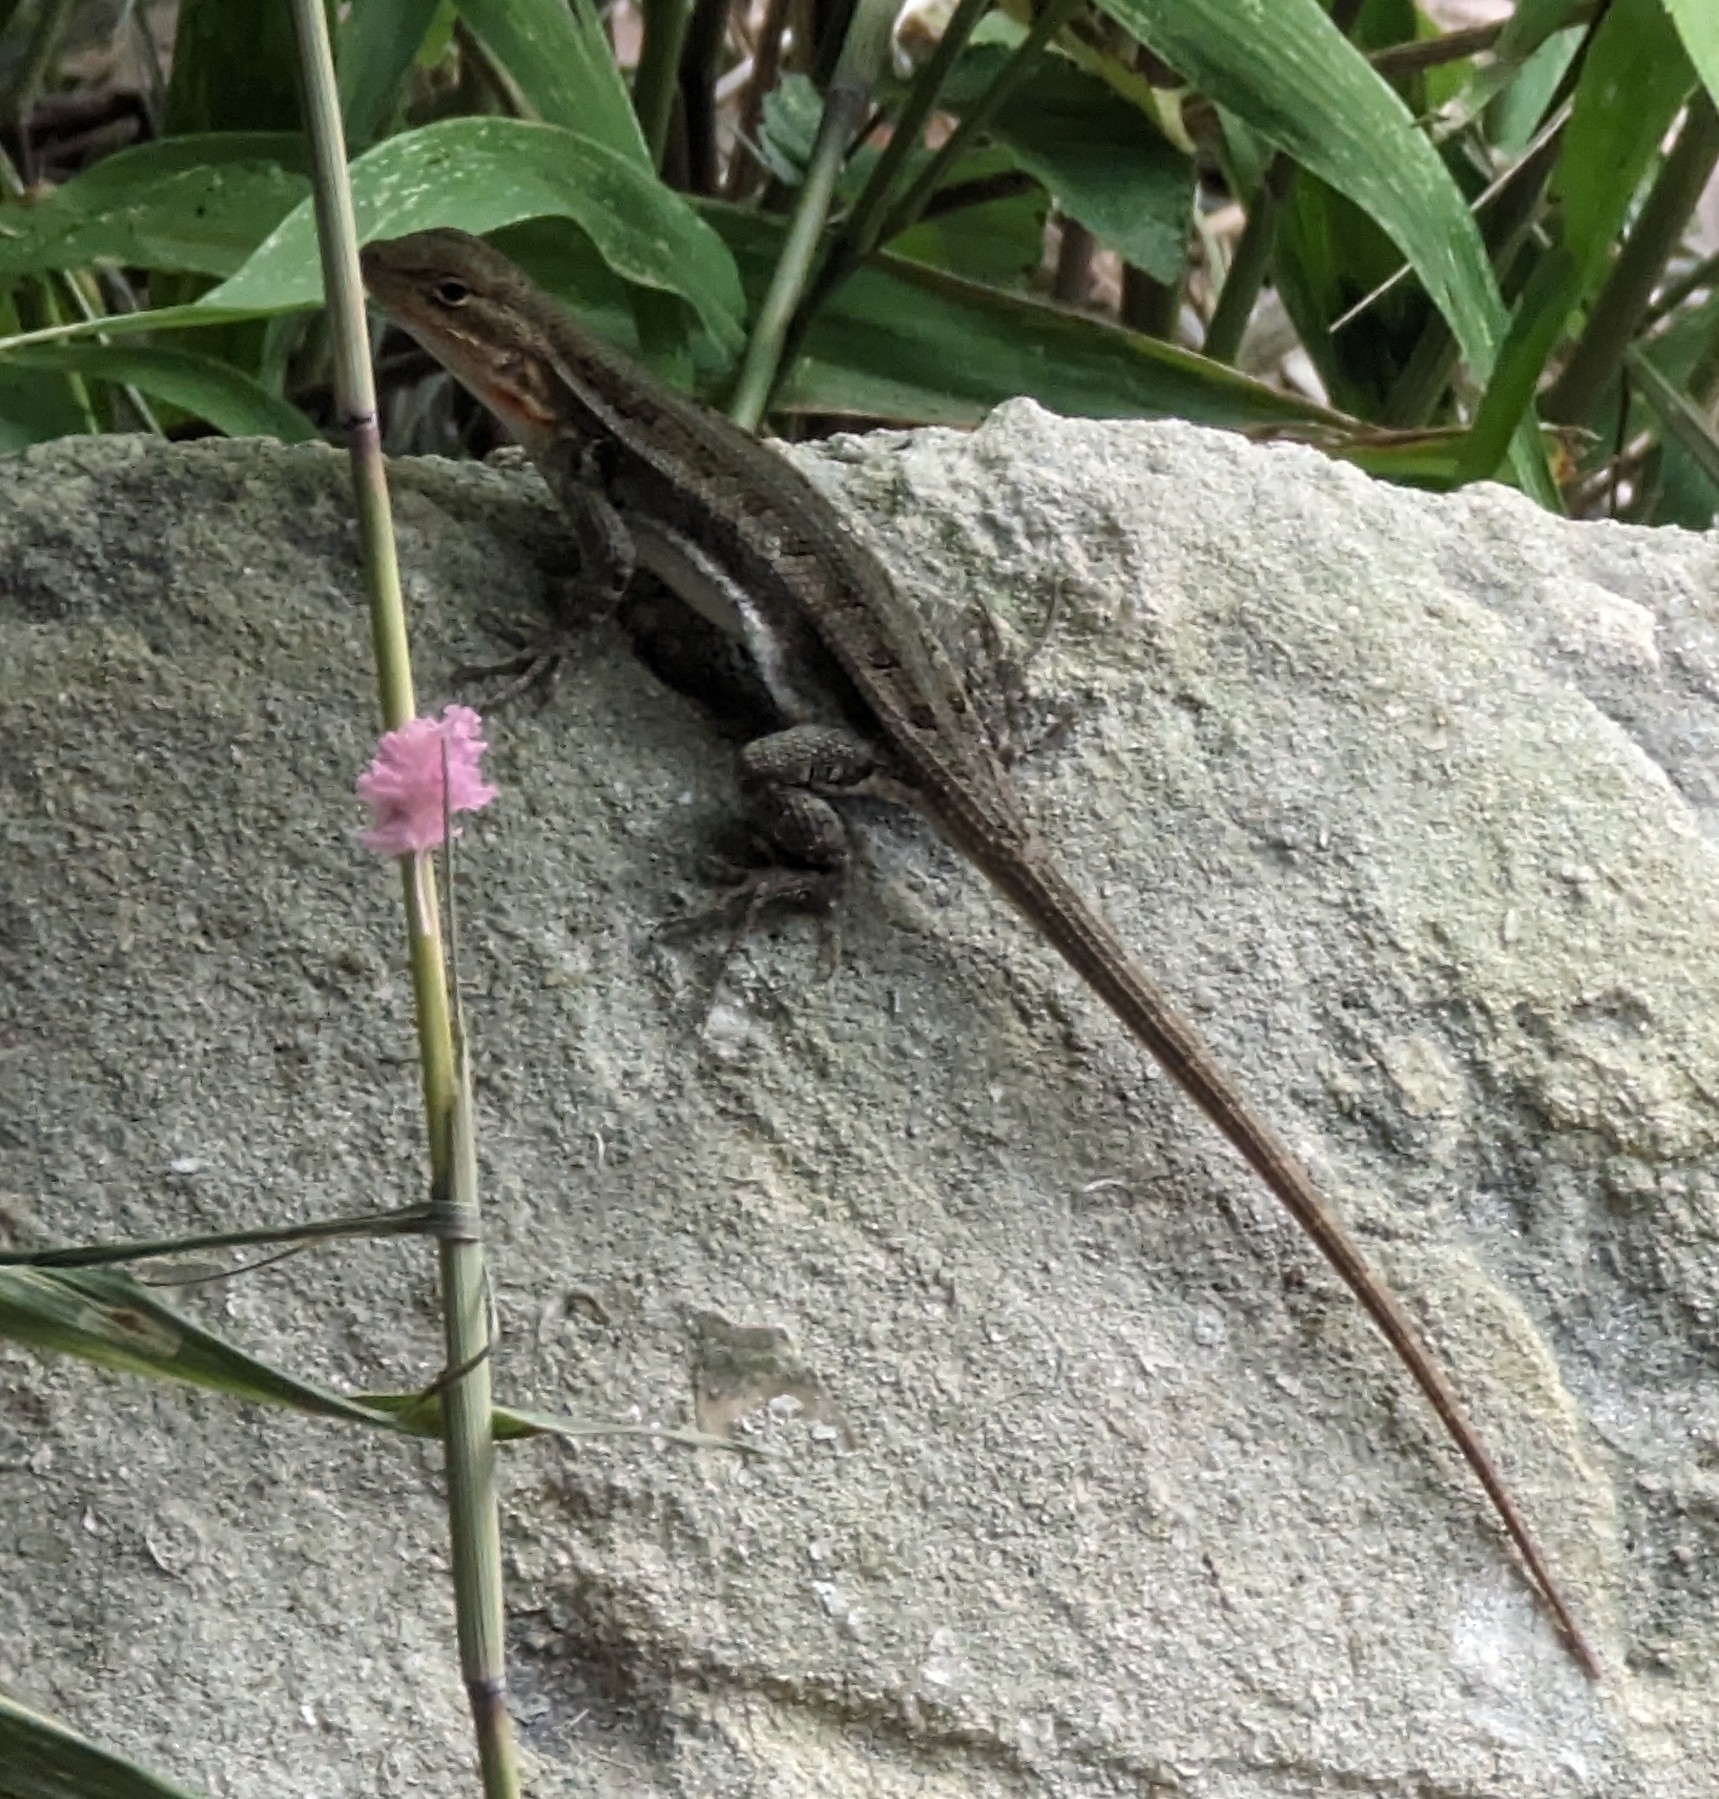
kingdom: Animalia
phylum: Chordata
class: Squamata
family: Phrynosomatidae
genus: Sceloporus
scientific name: Sceloporus variabilis
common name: Rosebelly lizard
